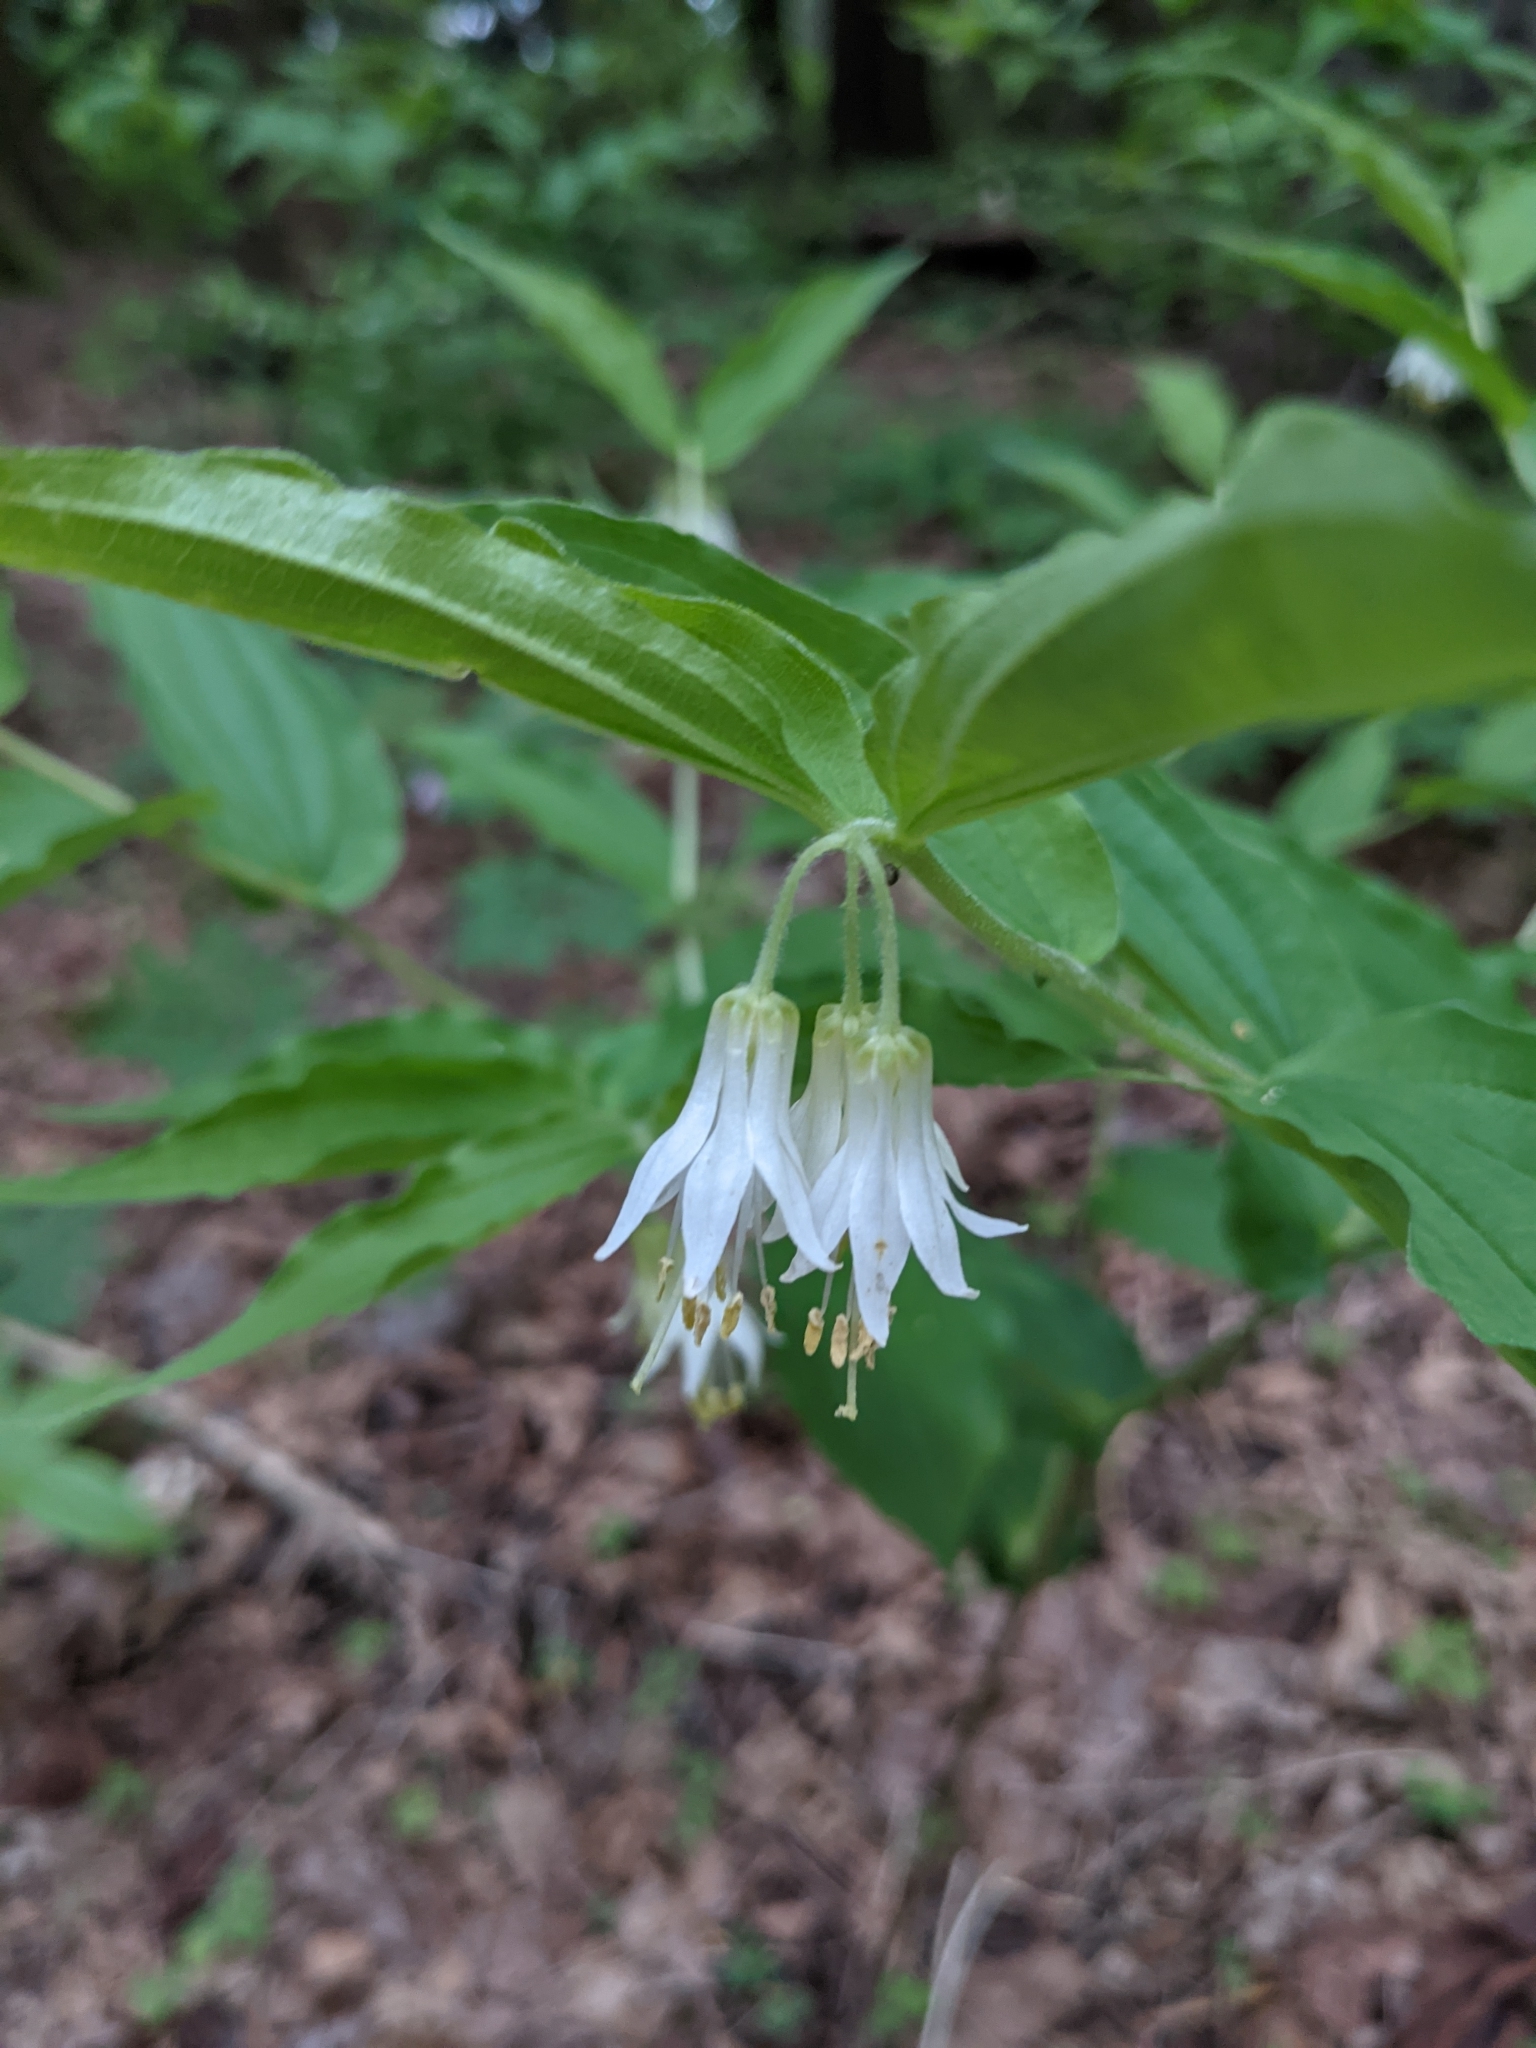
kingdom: Plantae
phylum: Tracheophyta
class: Liliopsida
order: Liliales
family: Liliaceae
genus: Prosartes
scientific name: Prosartes hookeri
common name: Fairy-bells
